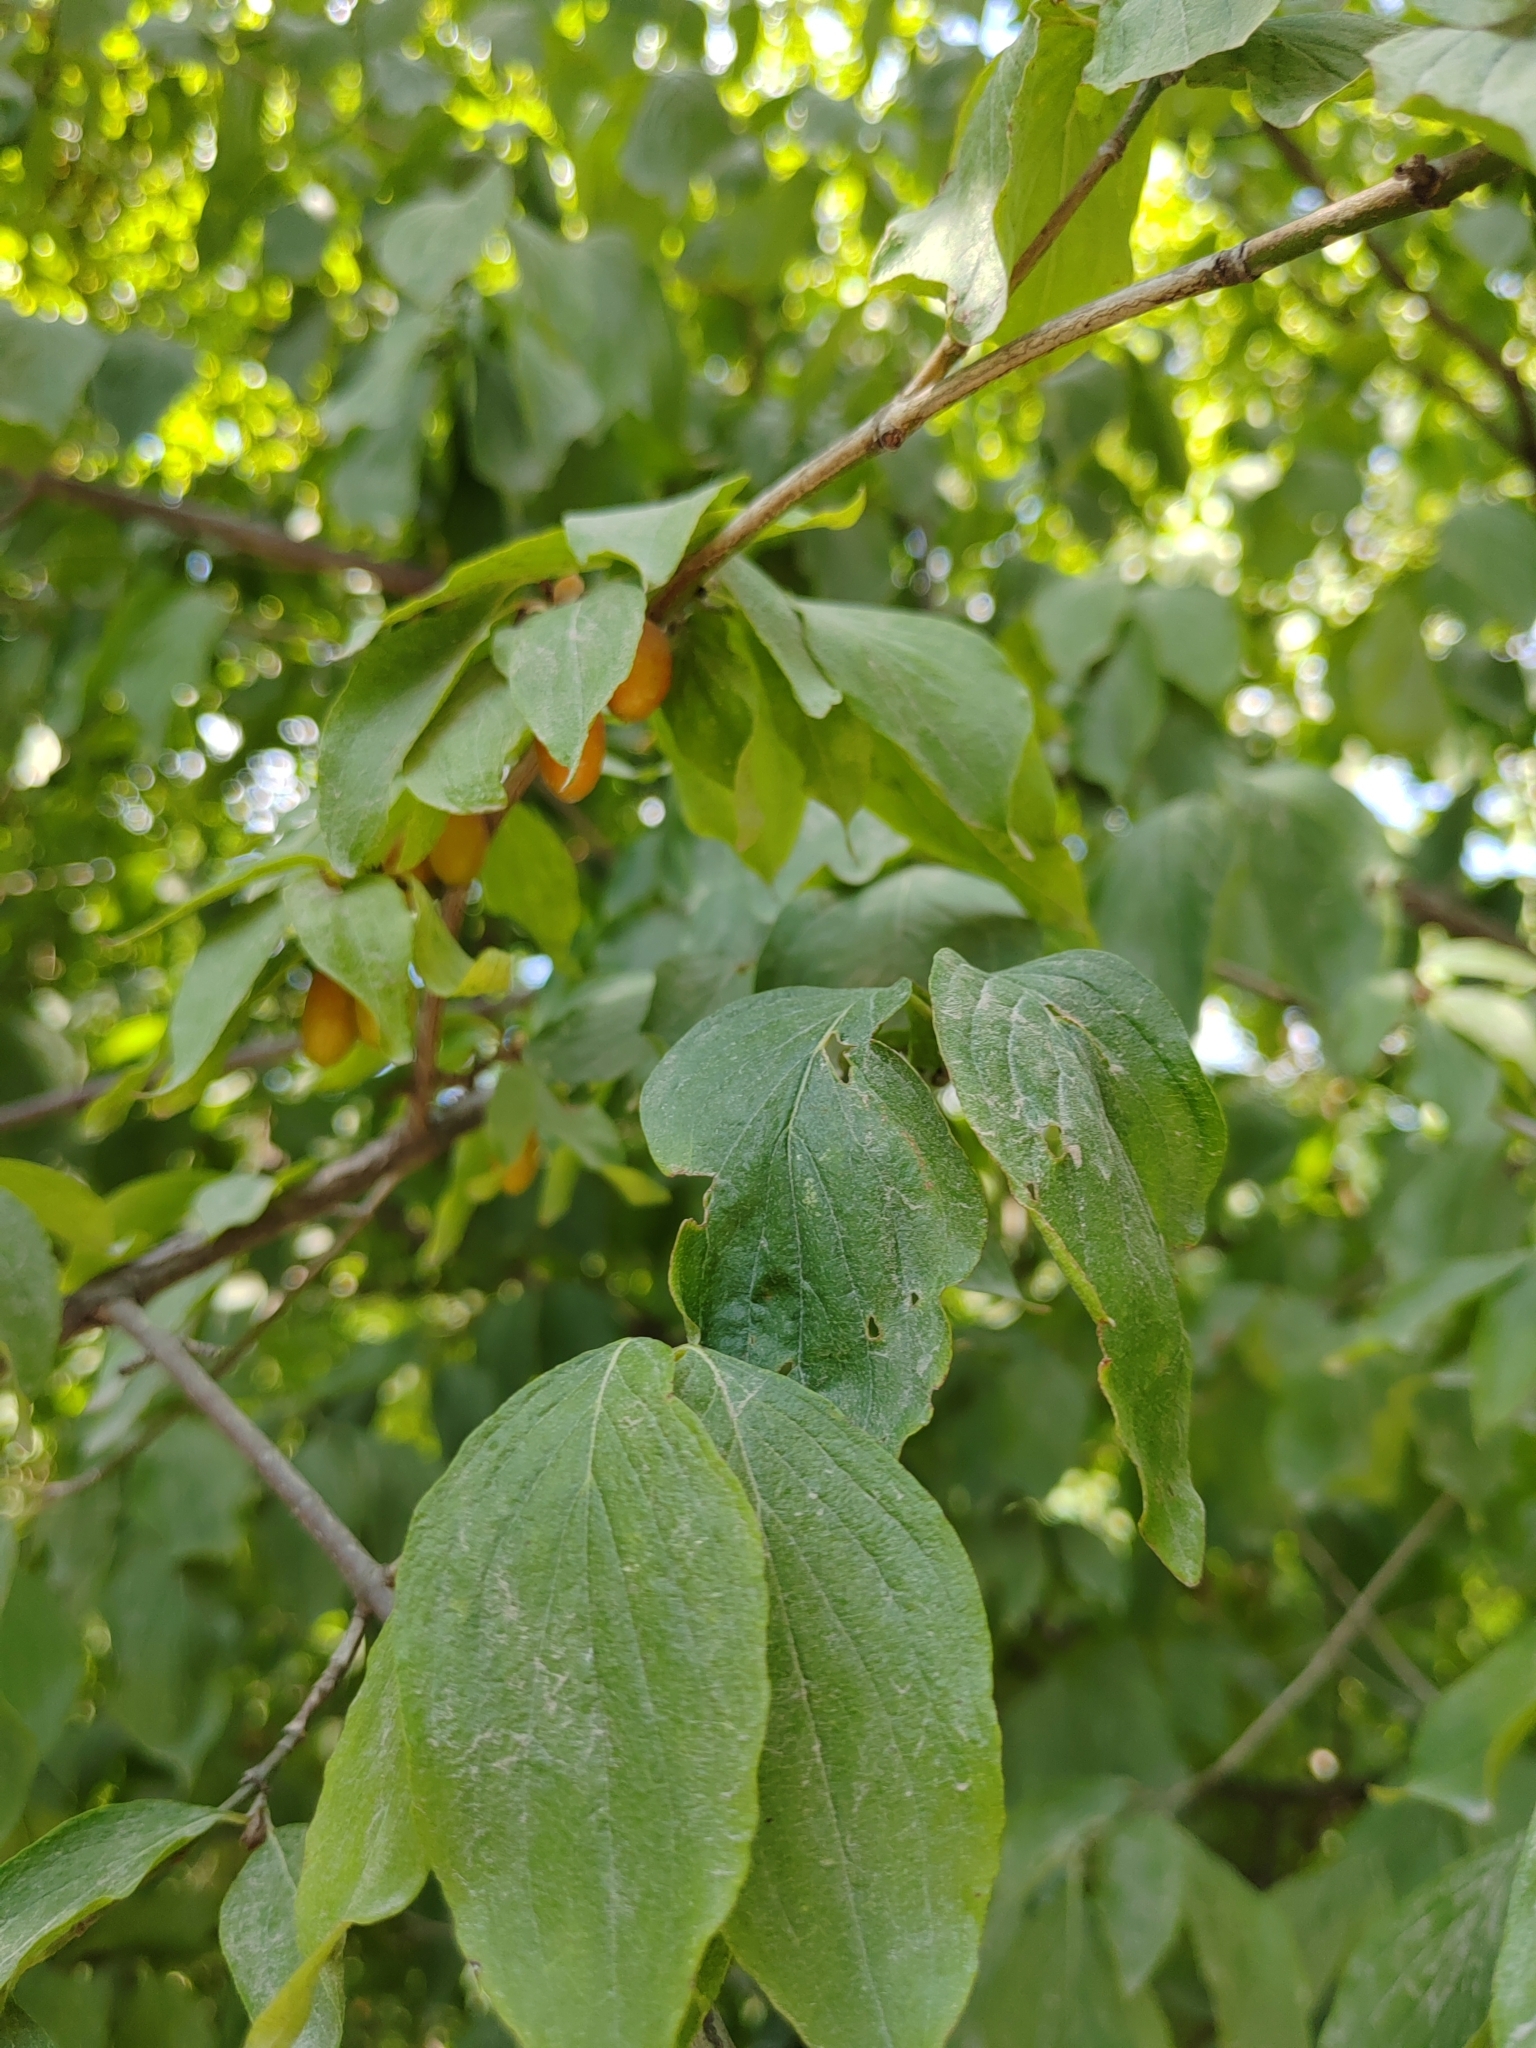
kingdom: Plantae
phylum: Tracheophyta
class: Magnoliopsida
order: Cornales
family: Cornaceae
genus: Cornus
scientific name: Cornus mas
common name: Cornelian-cherry
